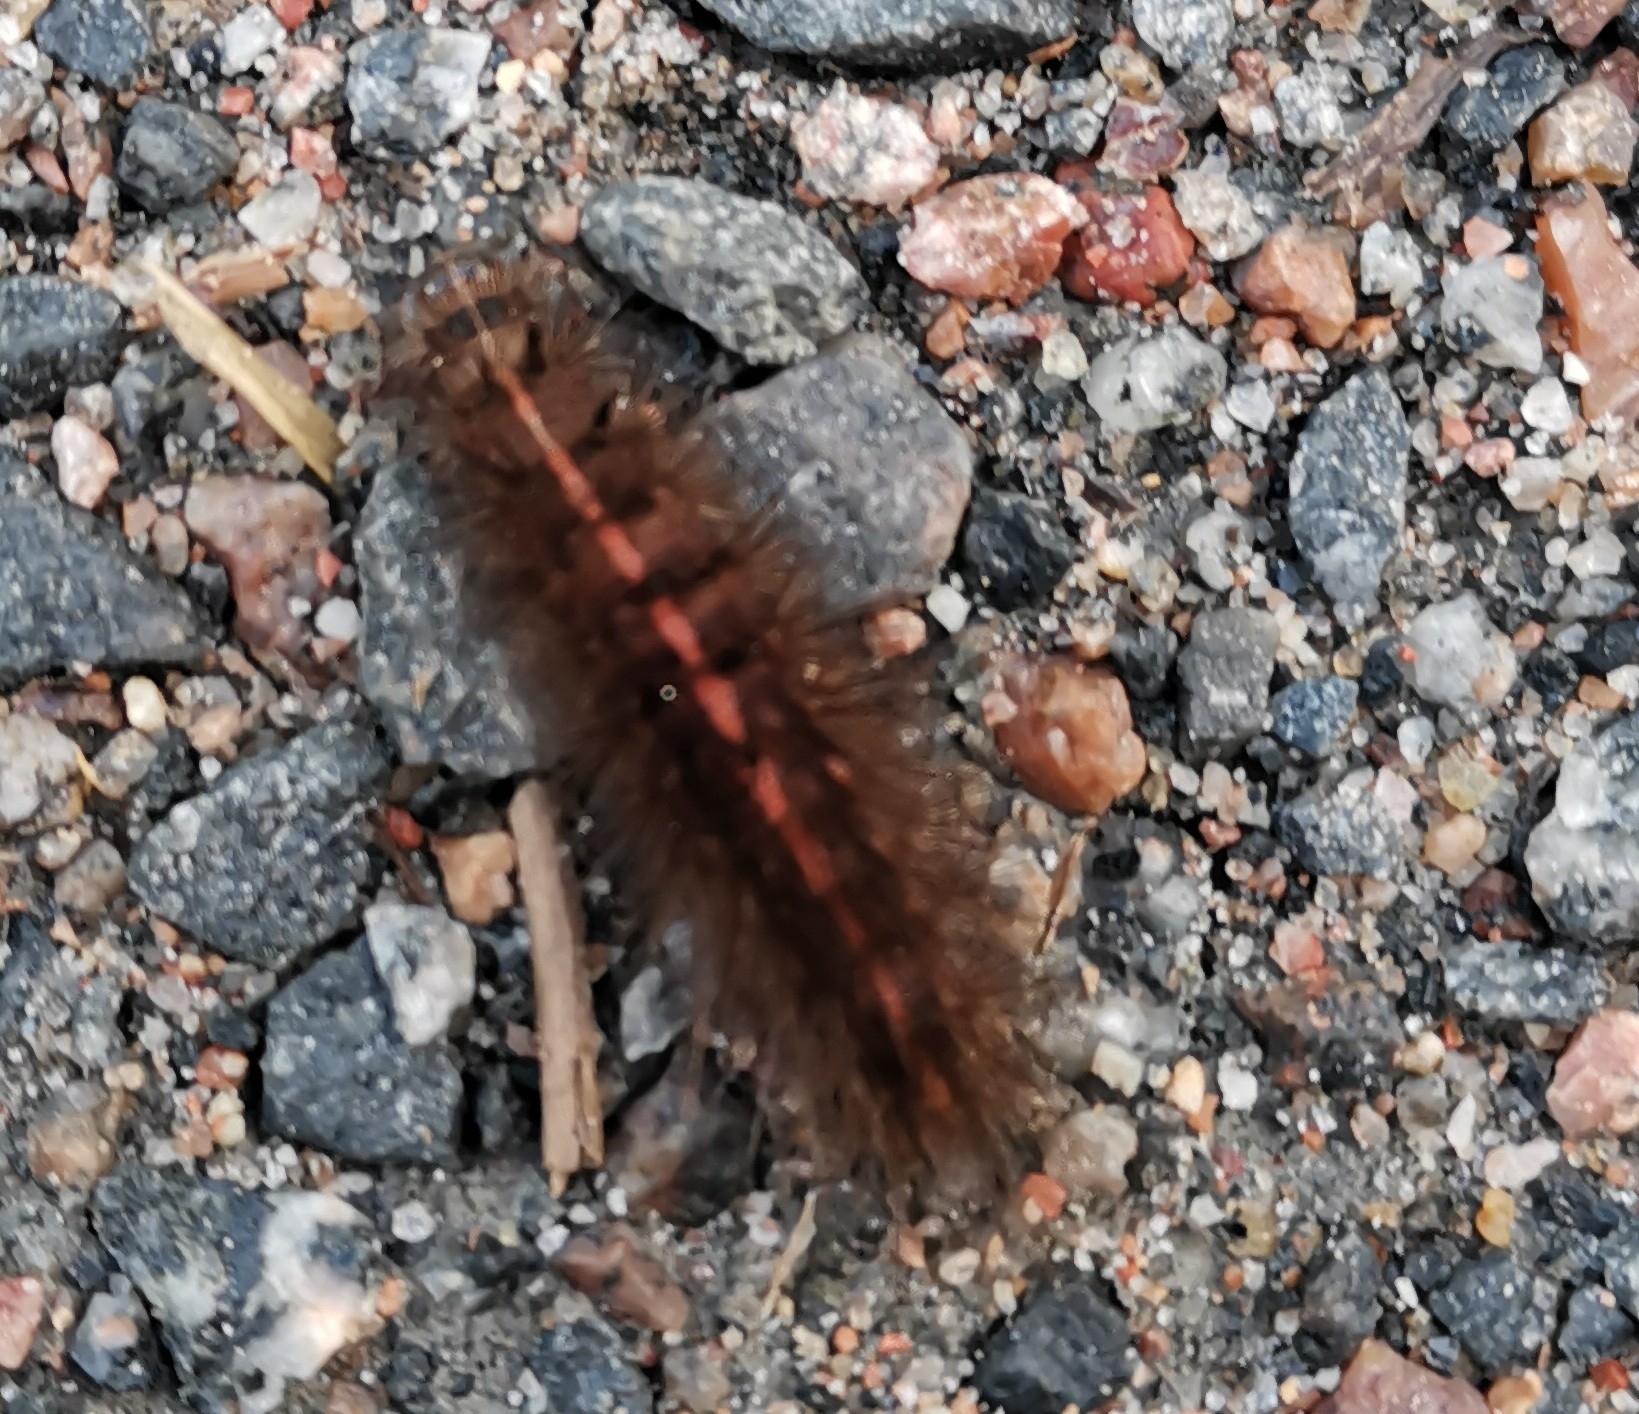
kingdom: Animalia
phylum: Arthropoda
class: Insecta
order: Lepidoptera
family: Erebidae
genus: Spilosoma
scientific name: Spilosoma lubricipeda
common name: White ermine
